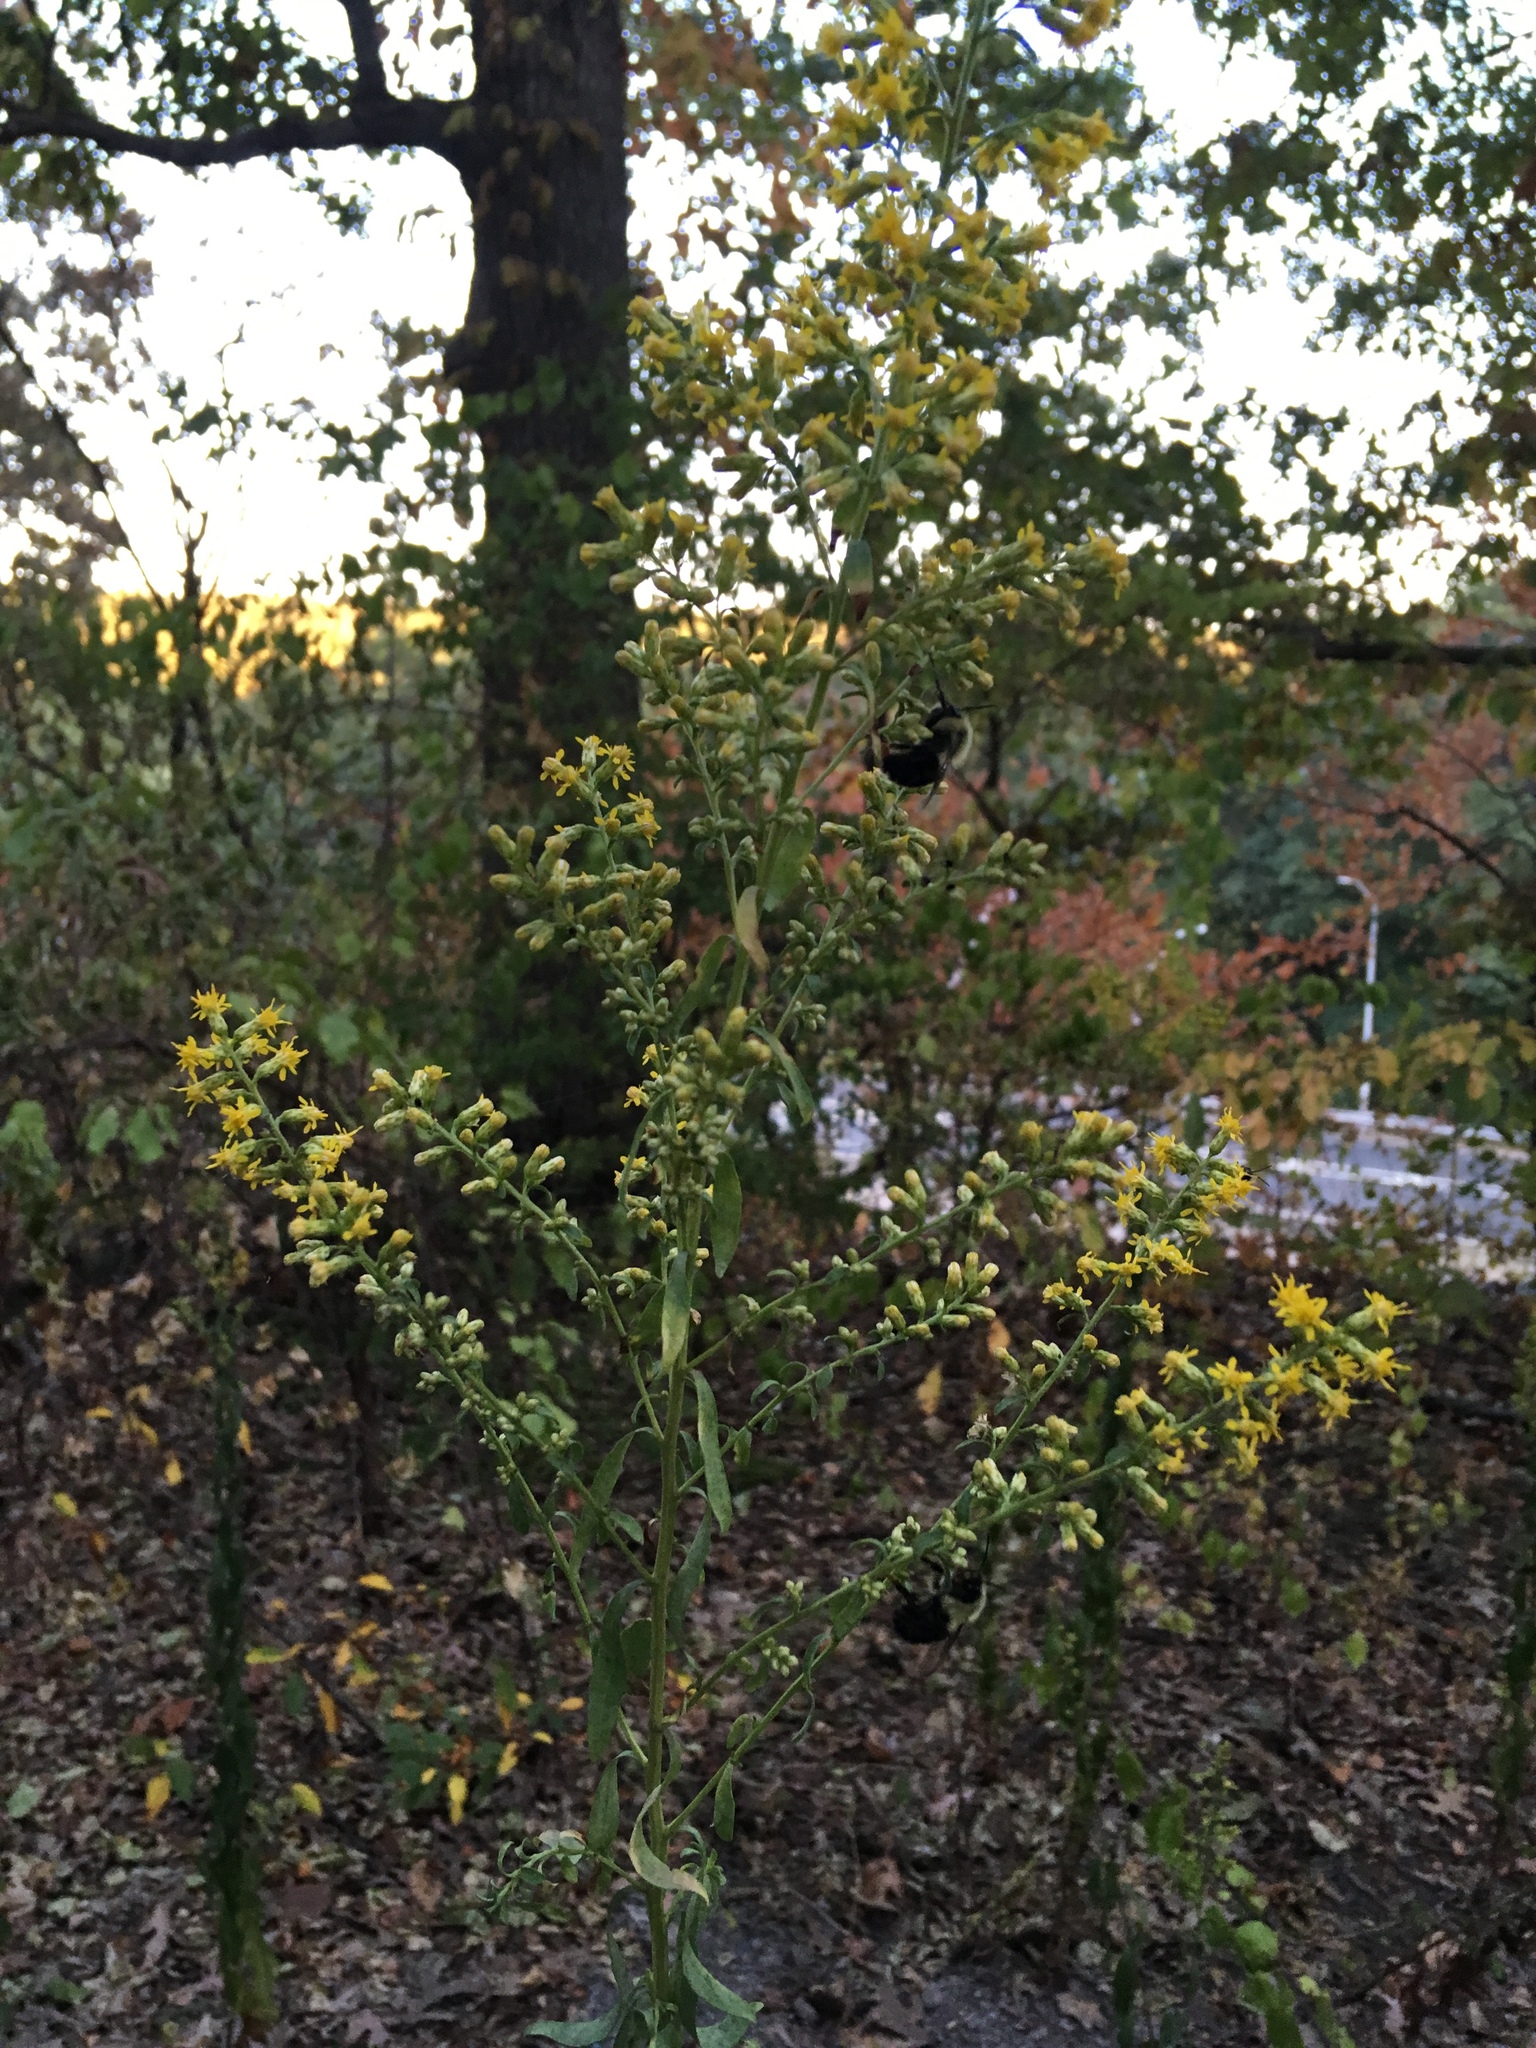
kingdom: Plantae
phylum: Tracheophyta
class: Magnoliopsida
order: Asterales
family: Asteraceae
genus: Solidago
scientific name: Solidago speciosa
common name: Showy goldenrod
